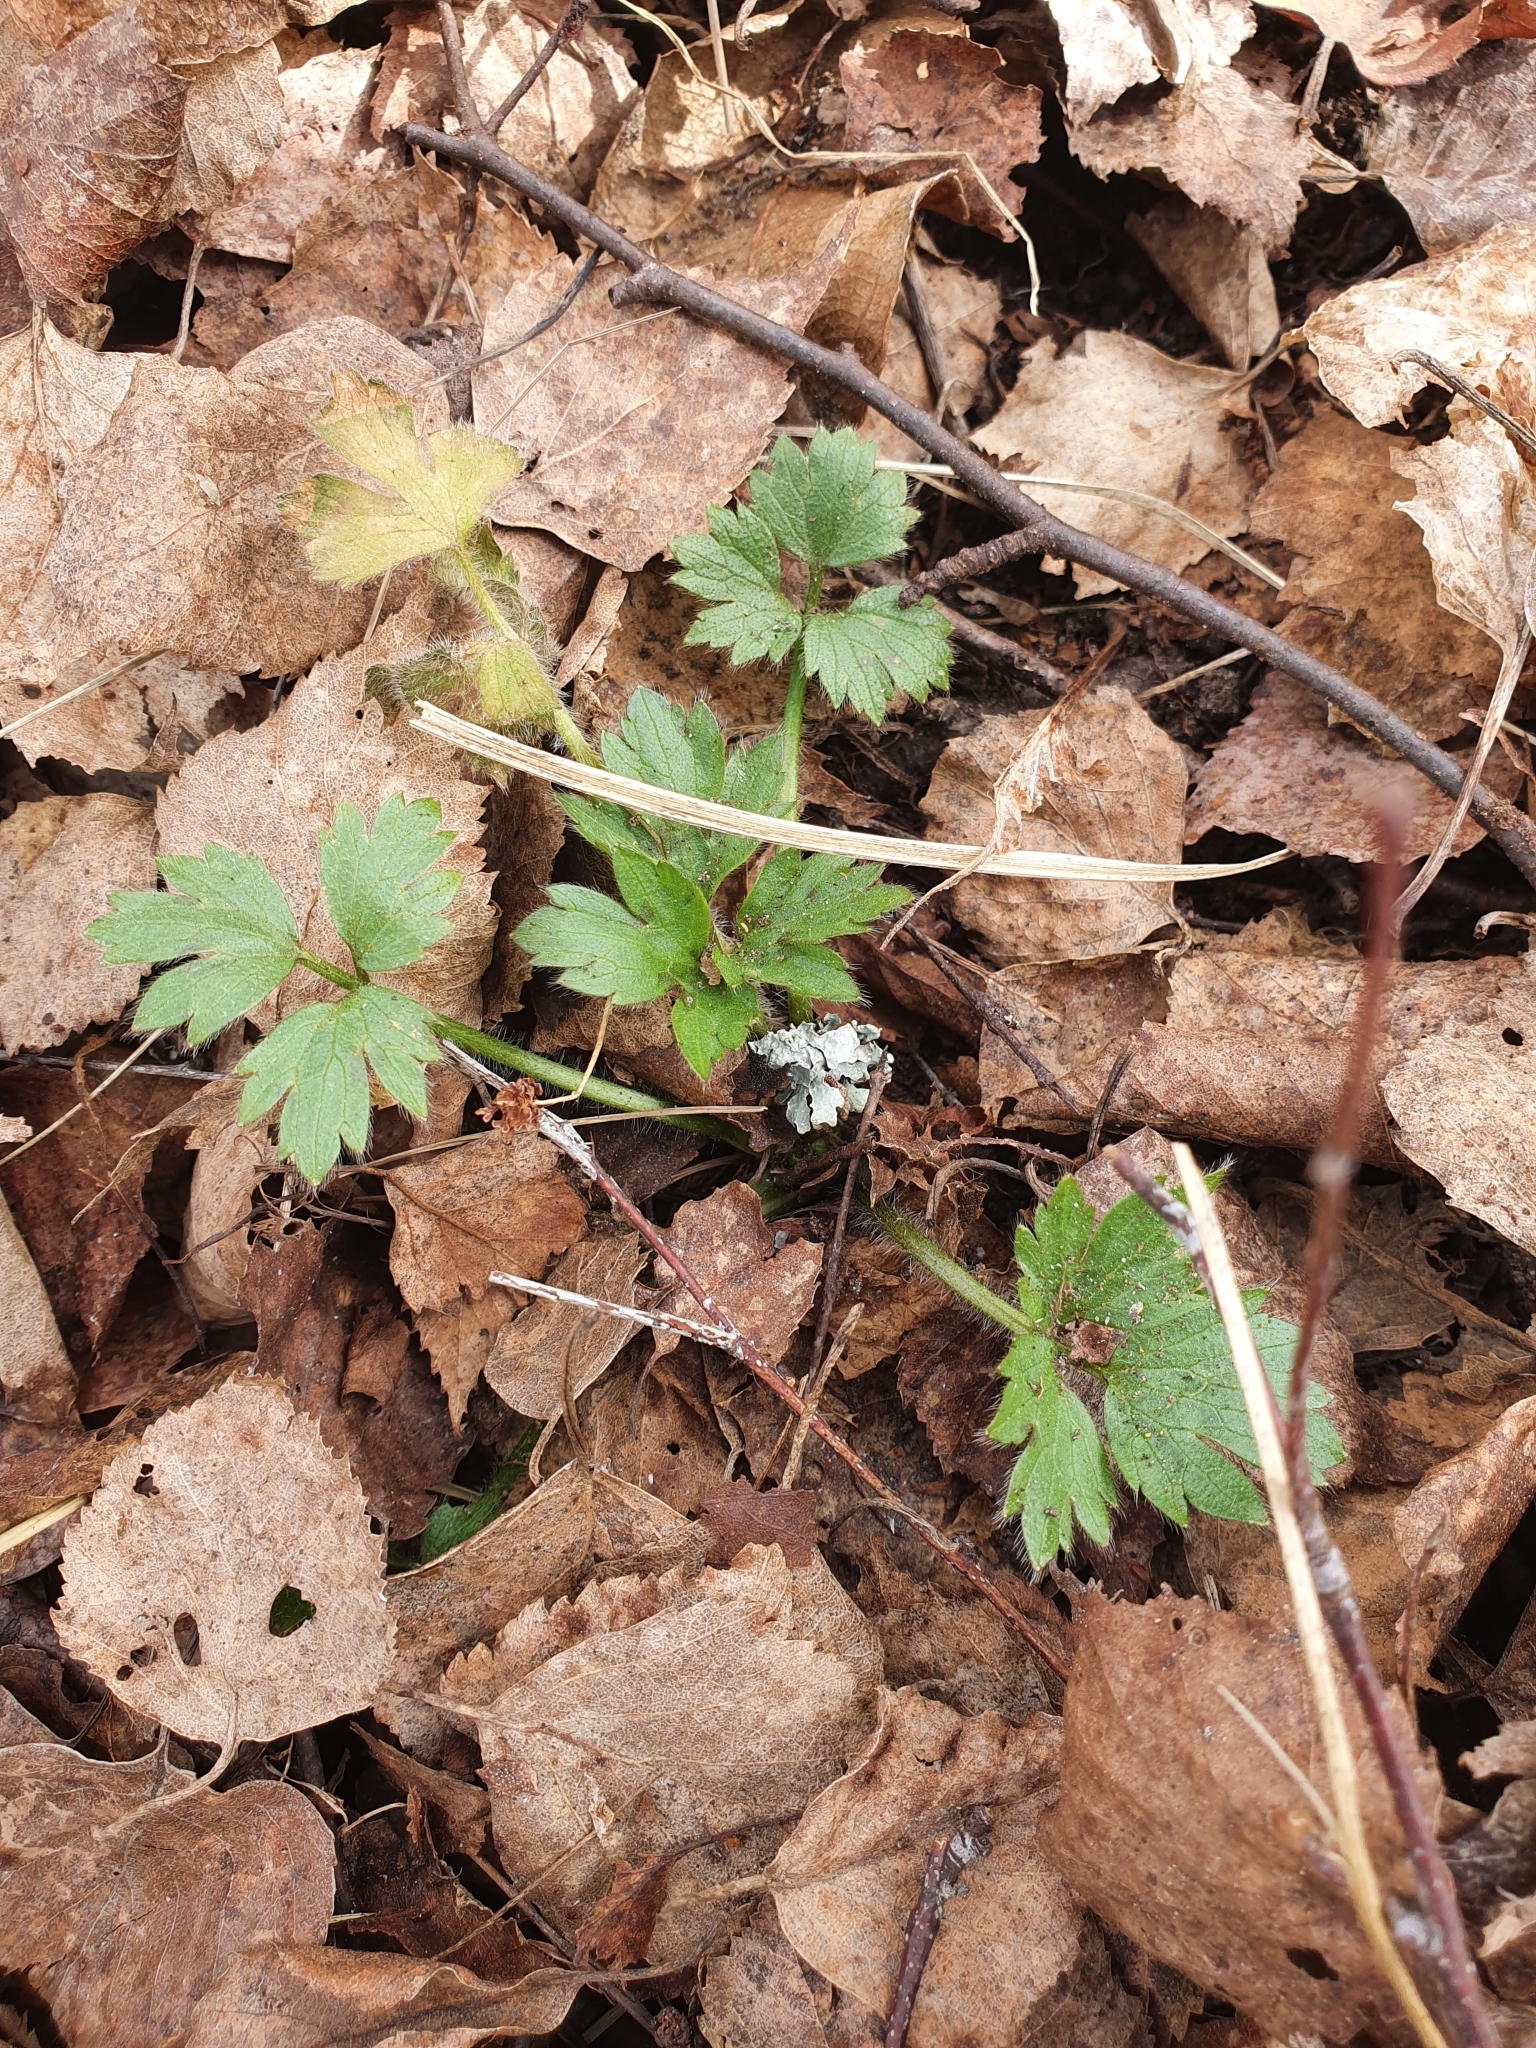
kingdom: Plantae
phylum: Tracheophyta
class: Magnoliopsida
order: Ranunculales
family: Ranunculaceae
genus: Ranunculus
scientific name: Ranunculus repens
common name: Creeping buttercup
